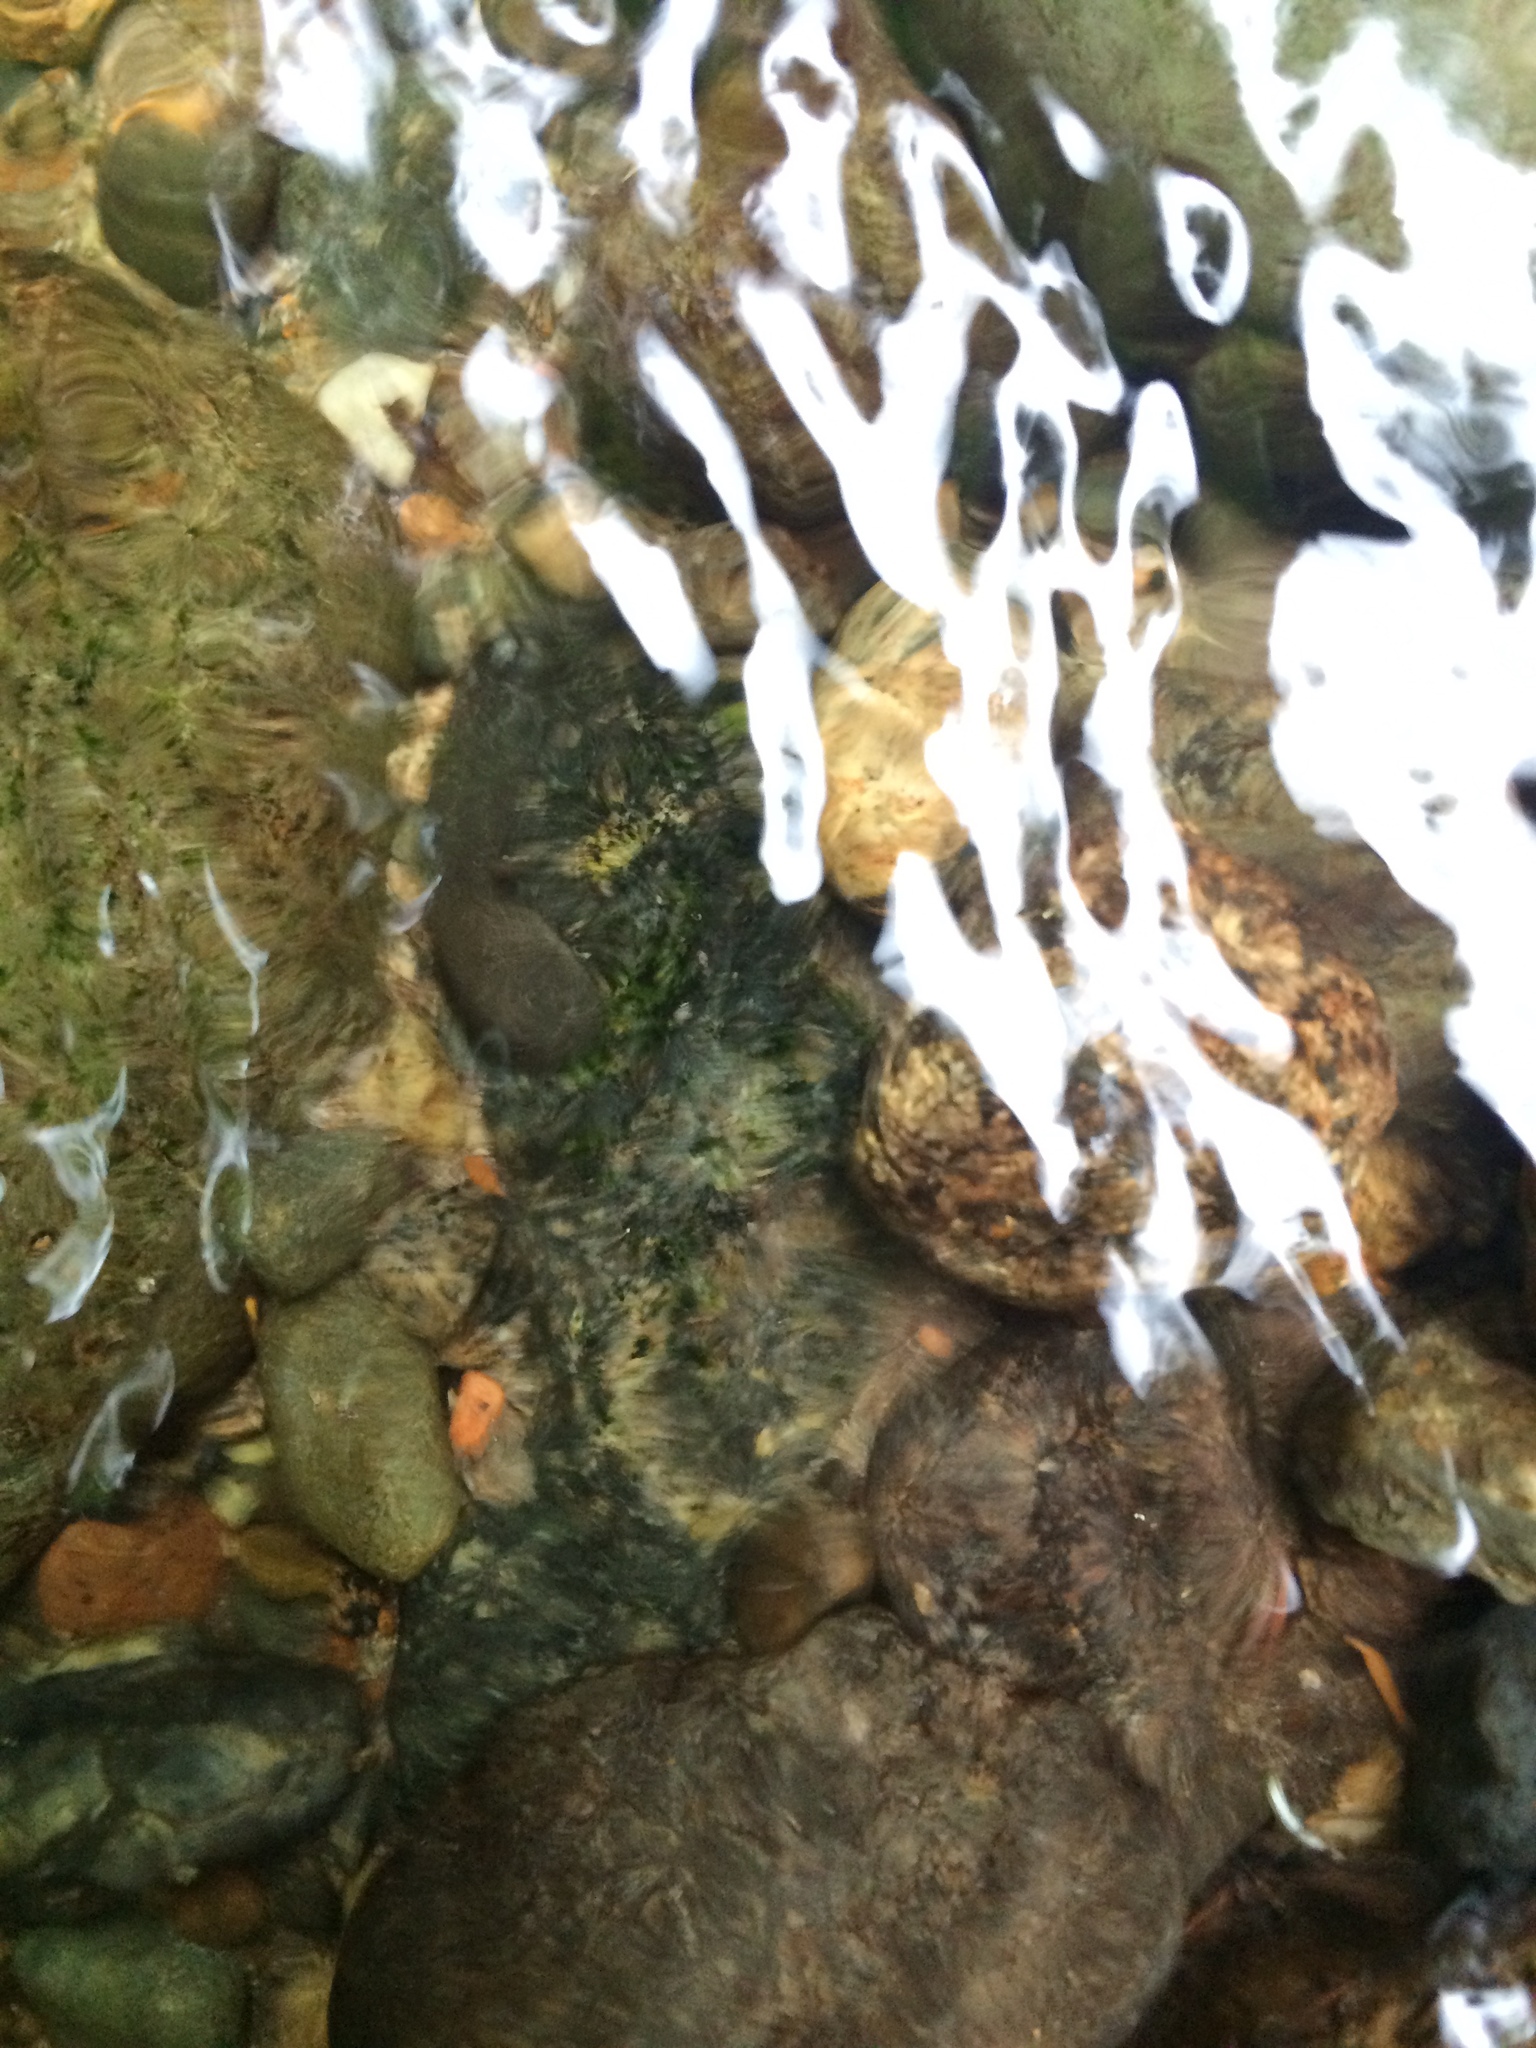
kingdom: Animalia
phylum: Chordata
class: Amphibia
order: Anura
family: Ascaphidae
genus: Ascaphus
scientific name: Ascaphus truei
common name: Tailed frog
